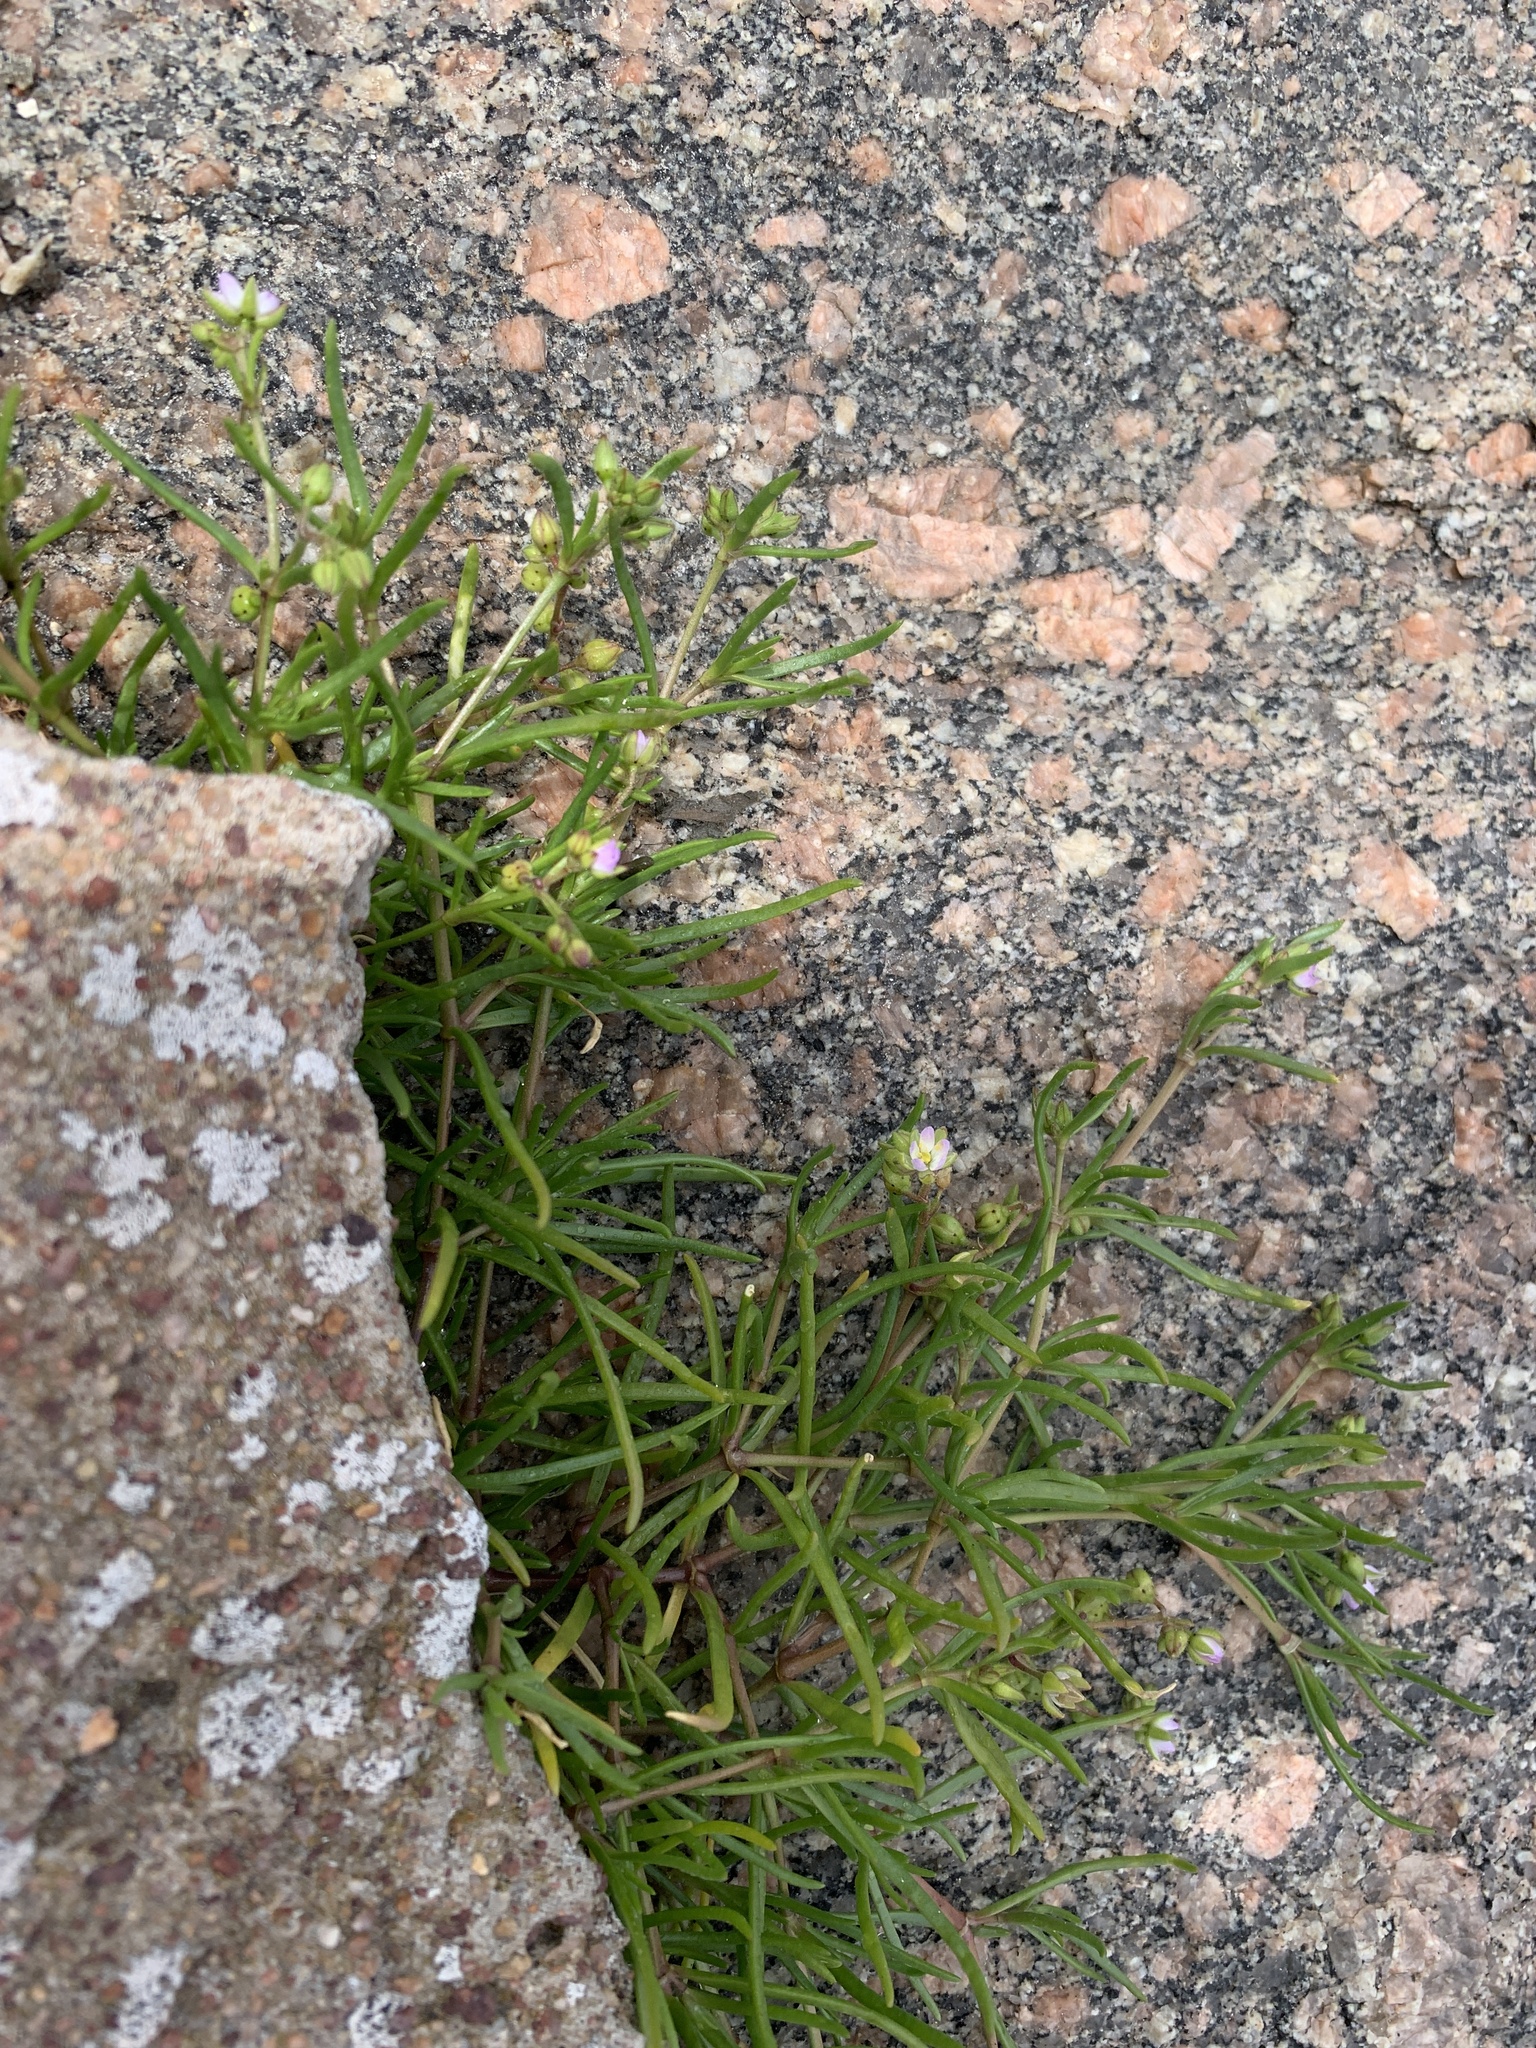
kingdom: Plantae
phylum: Tracheophyta
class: Magnoliopsida
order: Caryophyllales
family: Caryophyllaceae
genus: Spergularia
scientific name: Spergularia media
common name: Greater sea-spurrey
